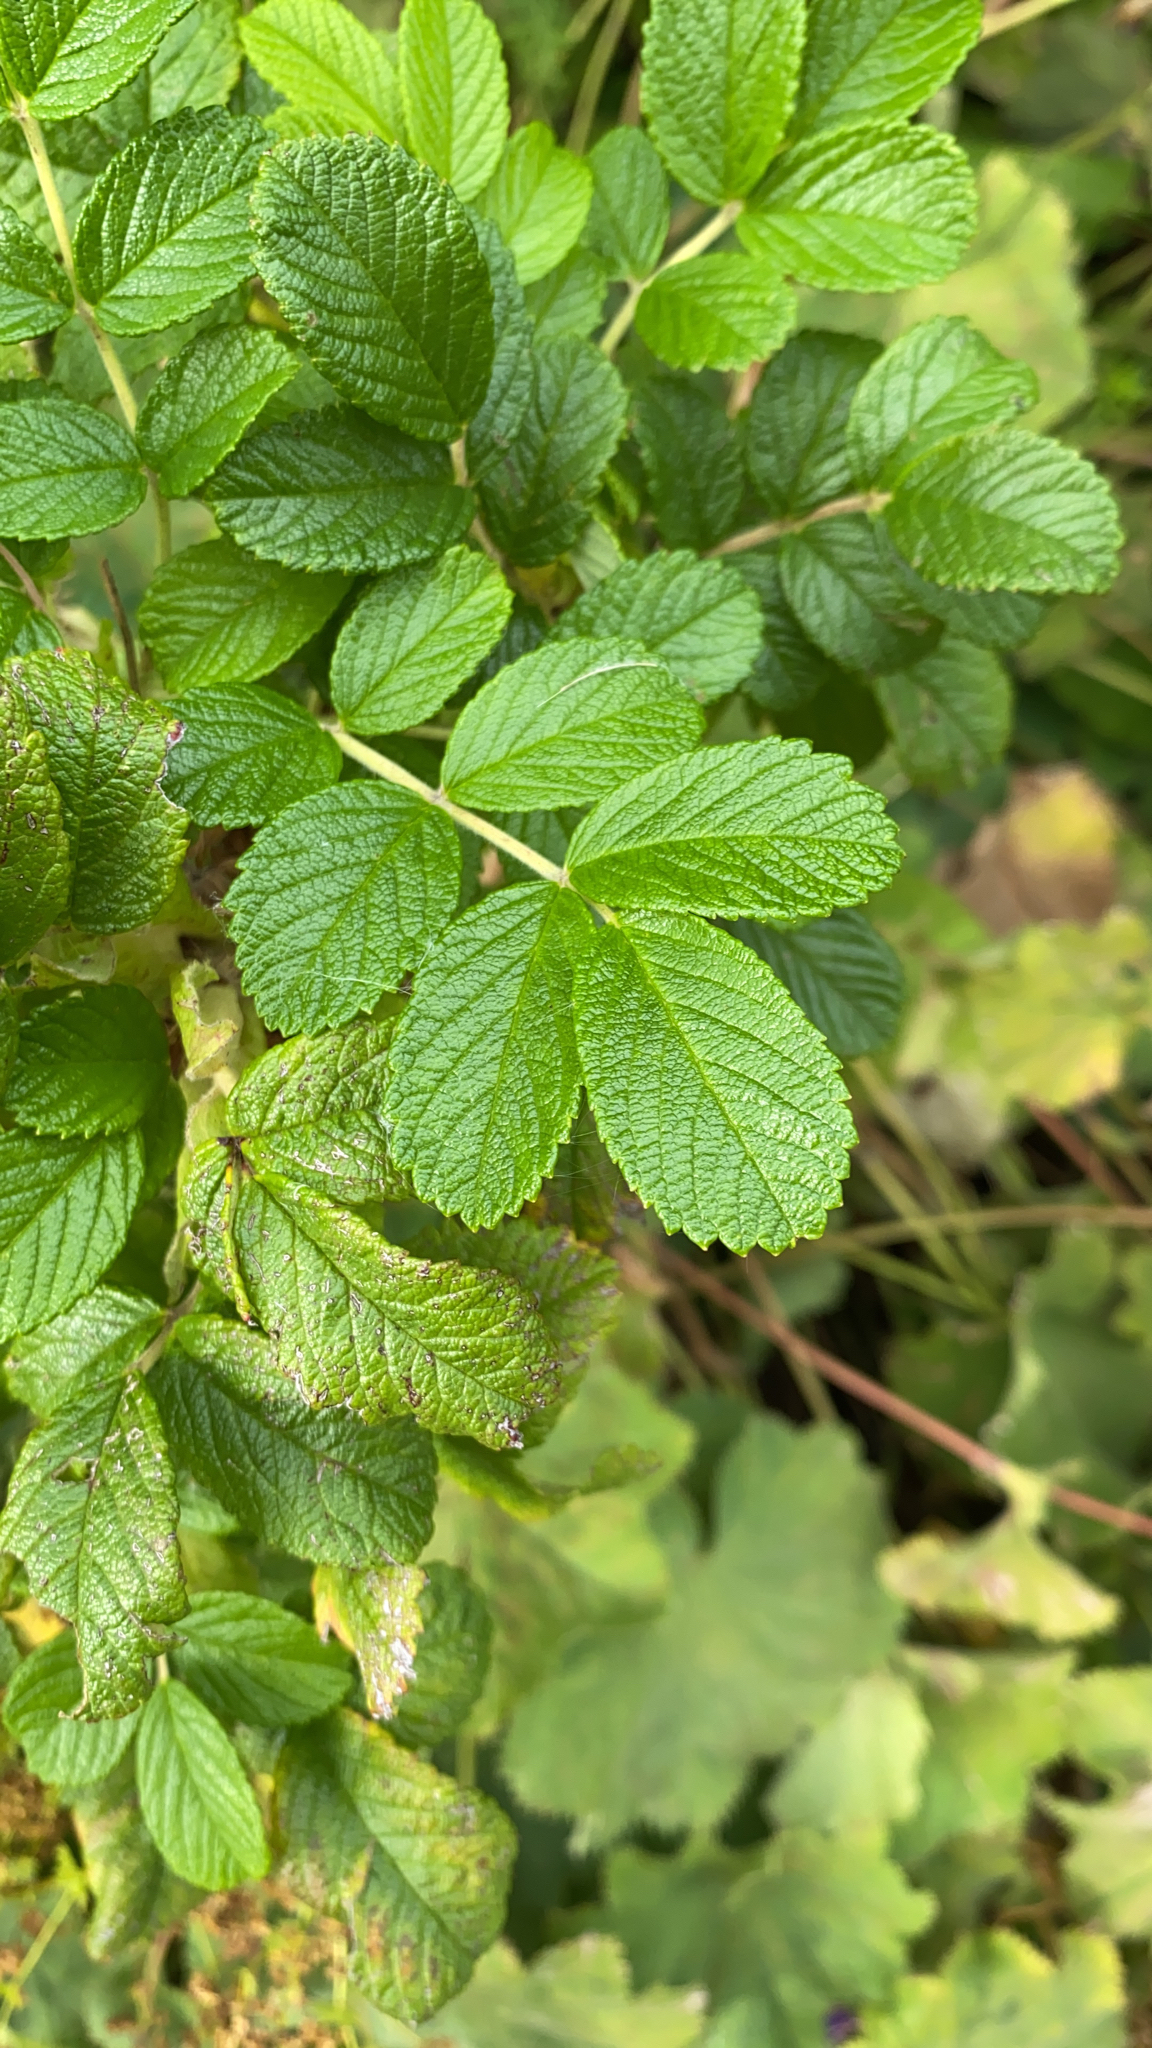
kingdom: Plantae
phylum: Tracheophyta
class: Magnoliopsida
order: Rosales
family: Rosaceae
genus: Rosa
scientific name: Rosa rugosa
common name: Japanese rose
